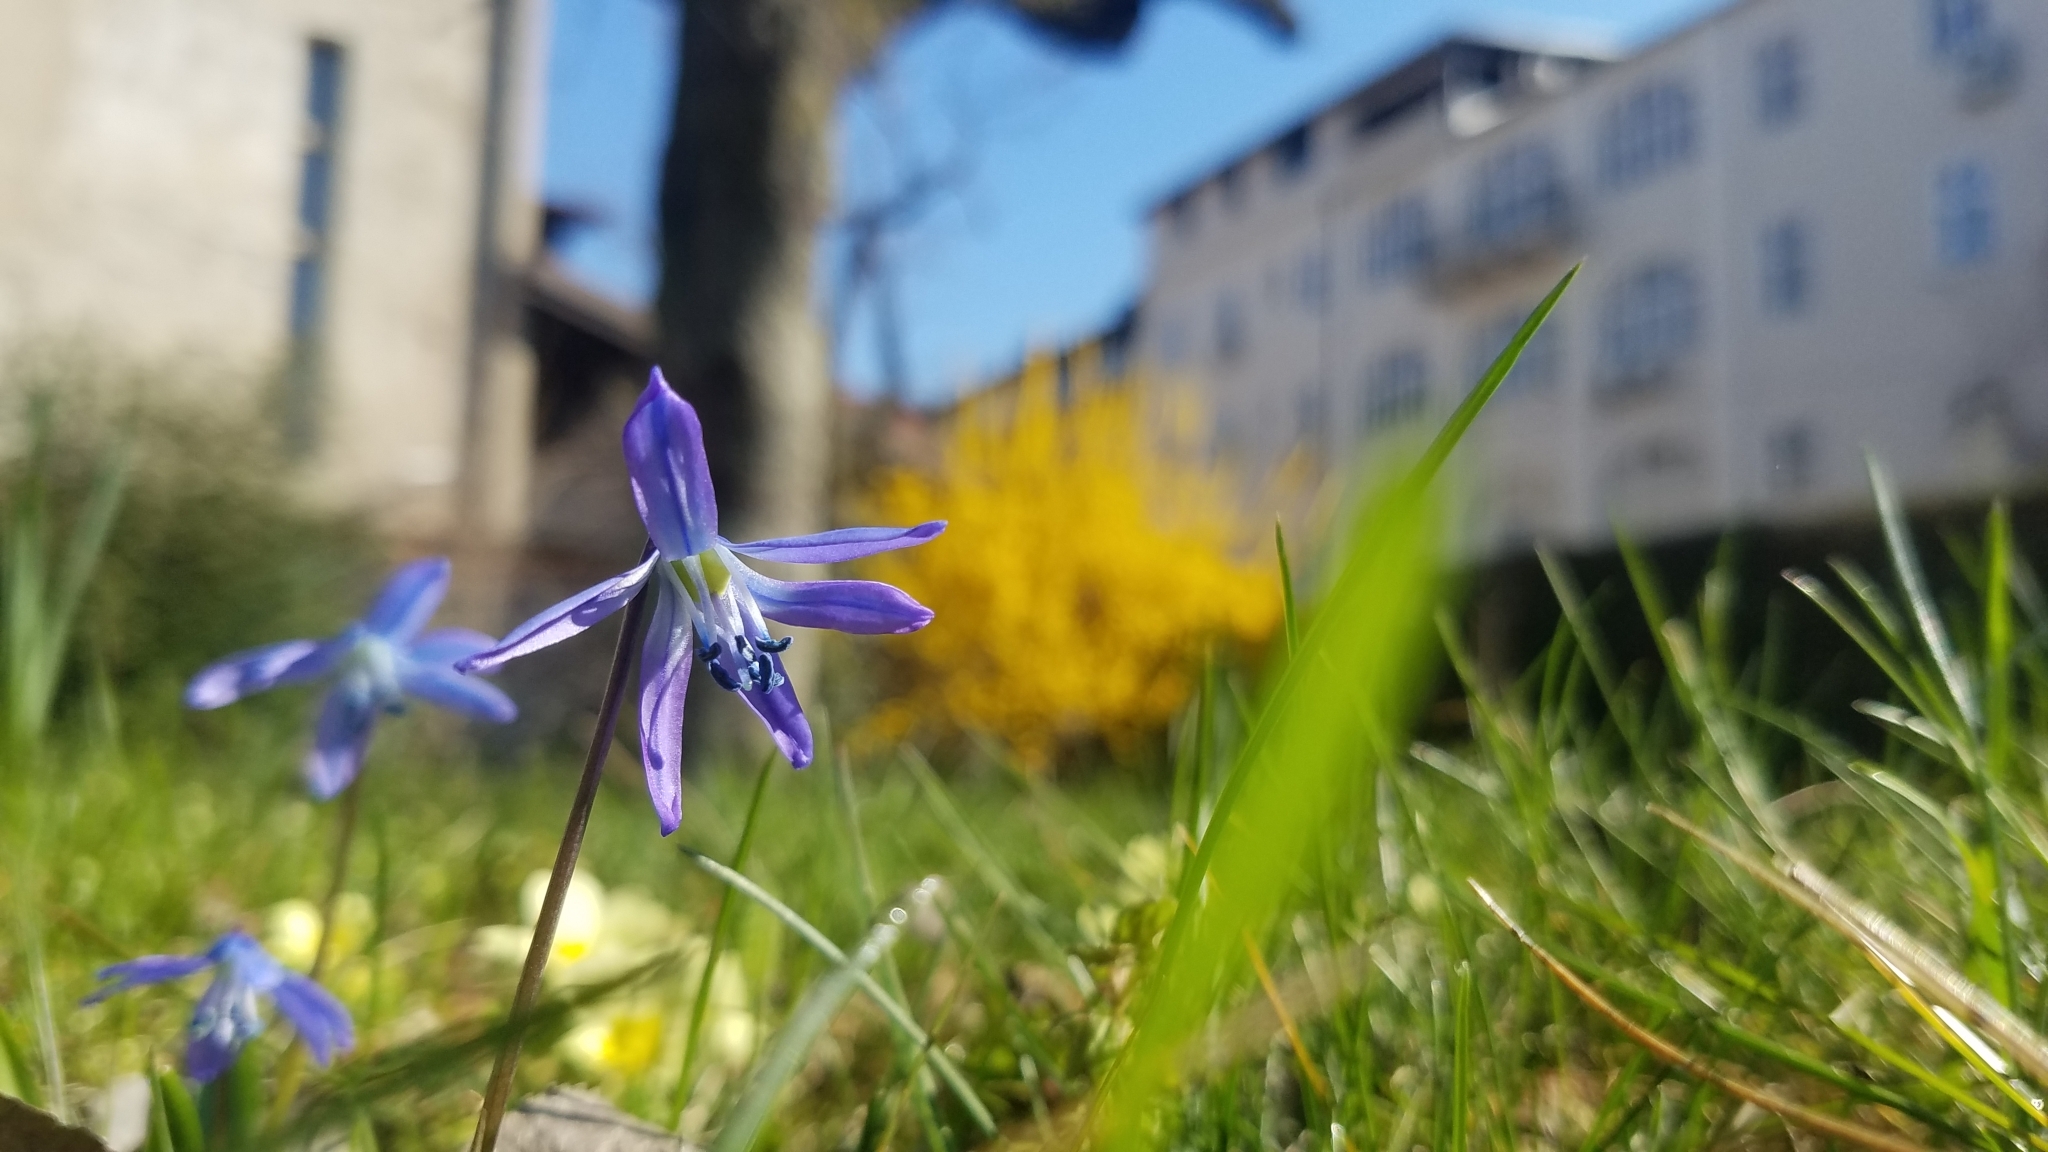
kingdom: Plantae
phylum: Tracheophyta
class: Liliopsida
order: Asparagales
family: Asparagaceae
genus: Scilla
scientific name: Scilla siberica
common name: Siberian squill
